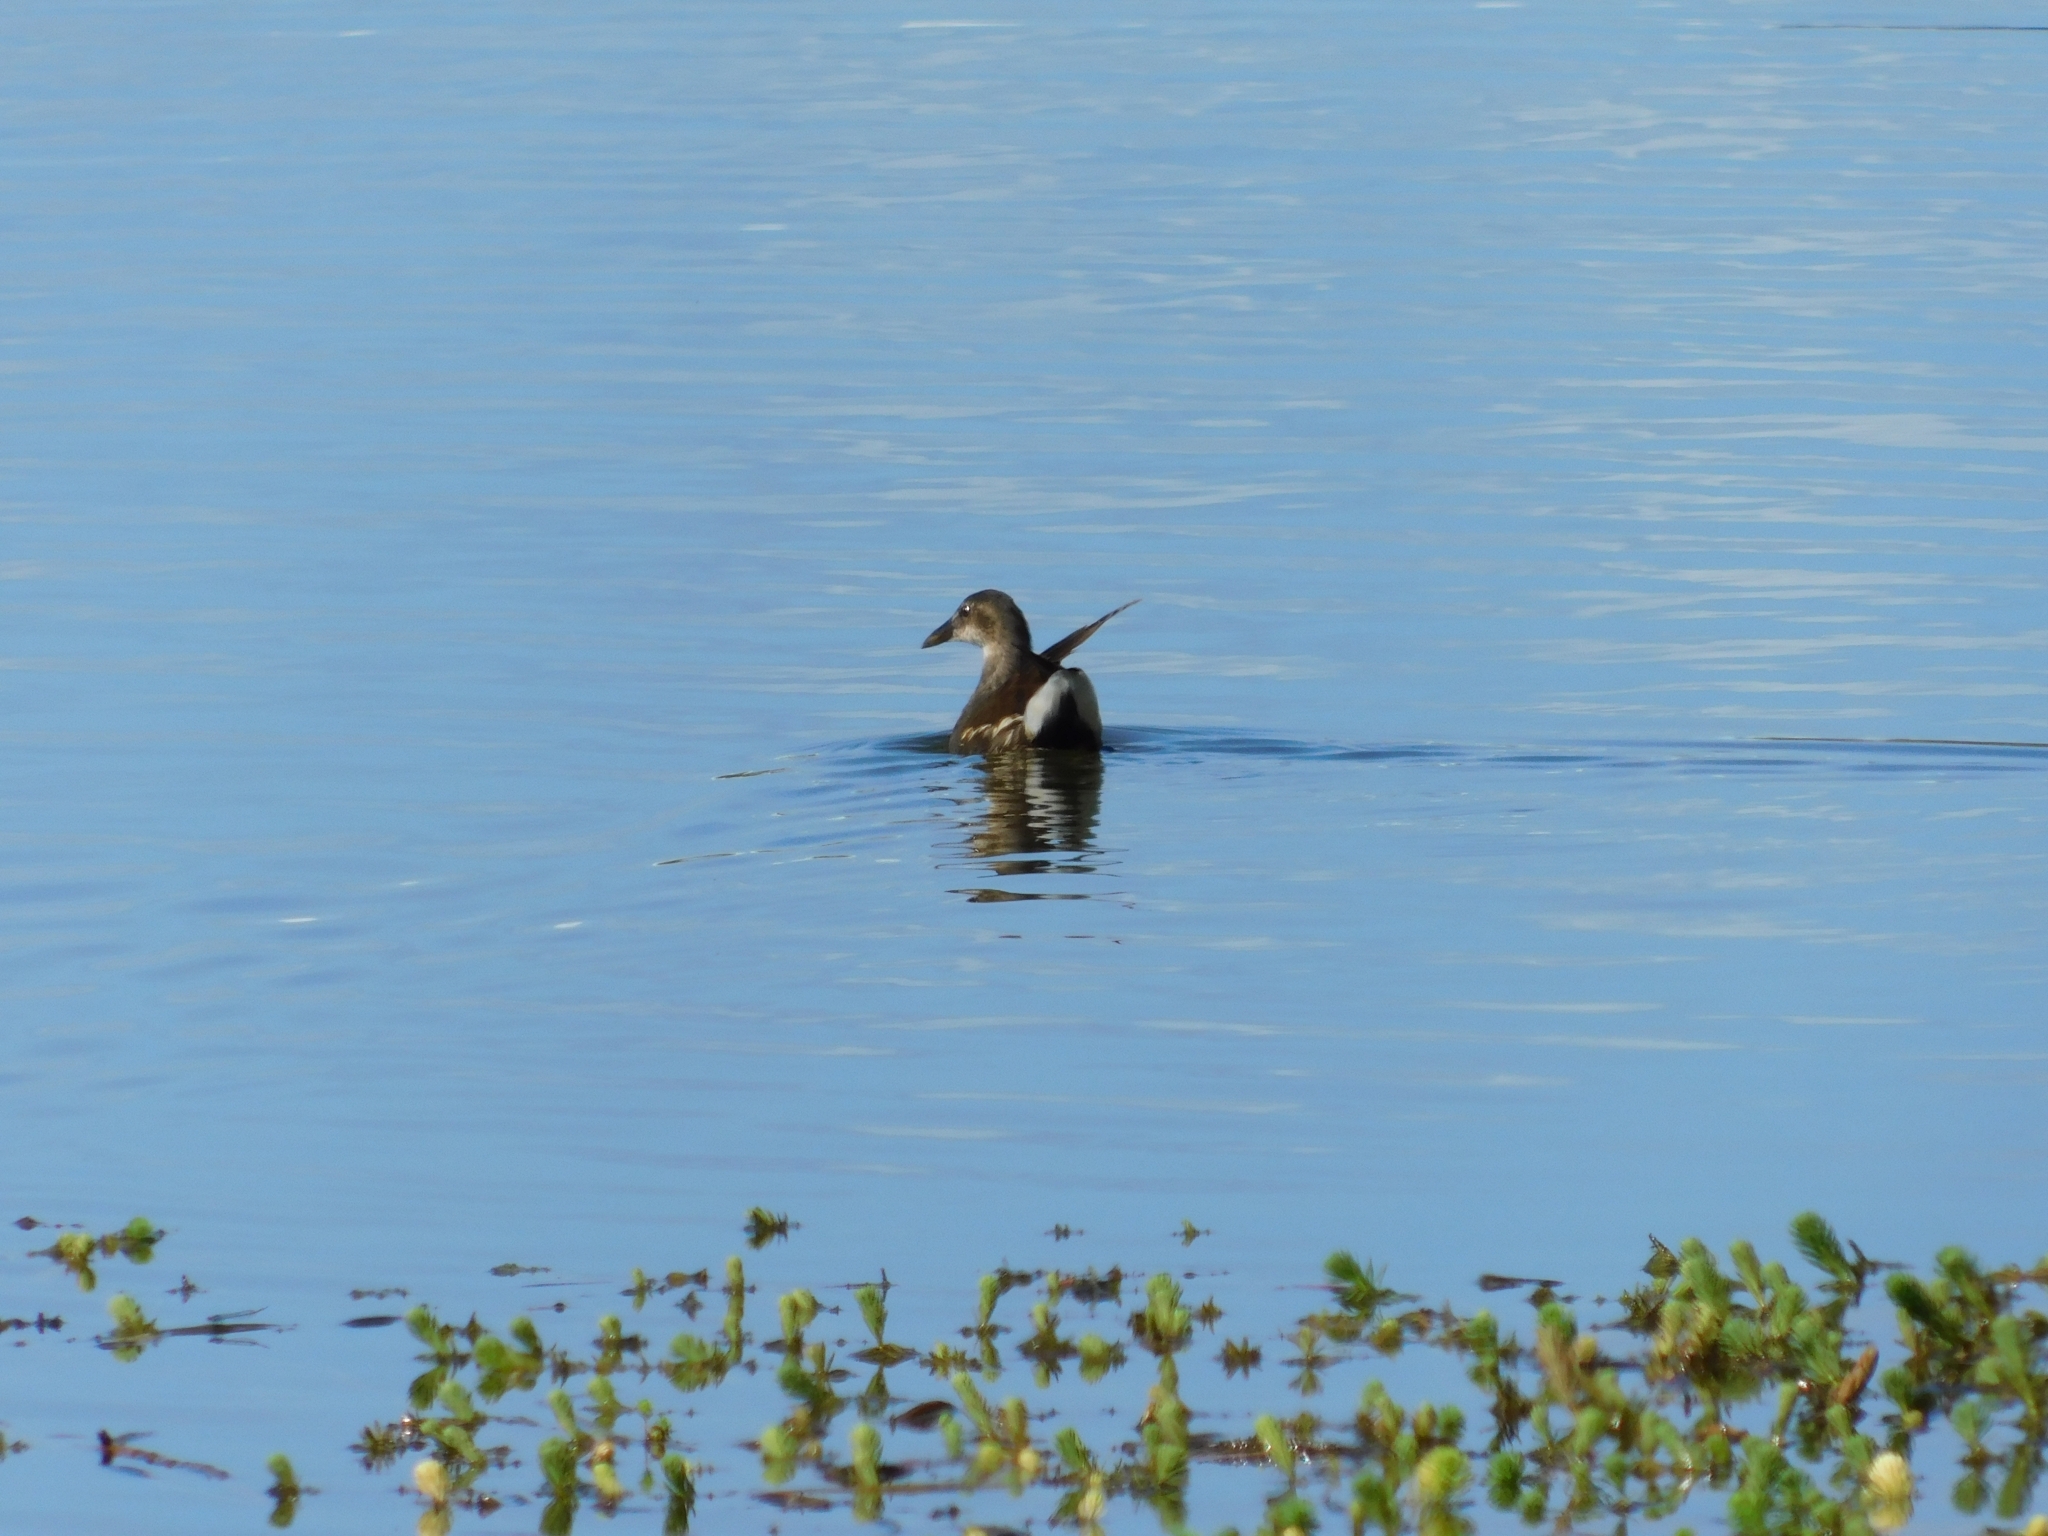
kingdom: Animalia
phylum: Chordata
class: Aves
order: Gruiformes
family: Rallidae
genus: Gallinula
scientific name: Gallinula chloropus
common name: Common moorhen
